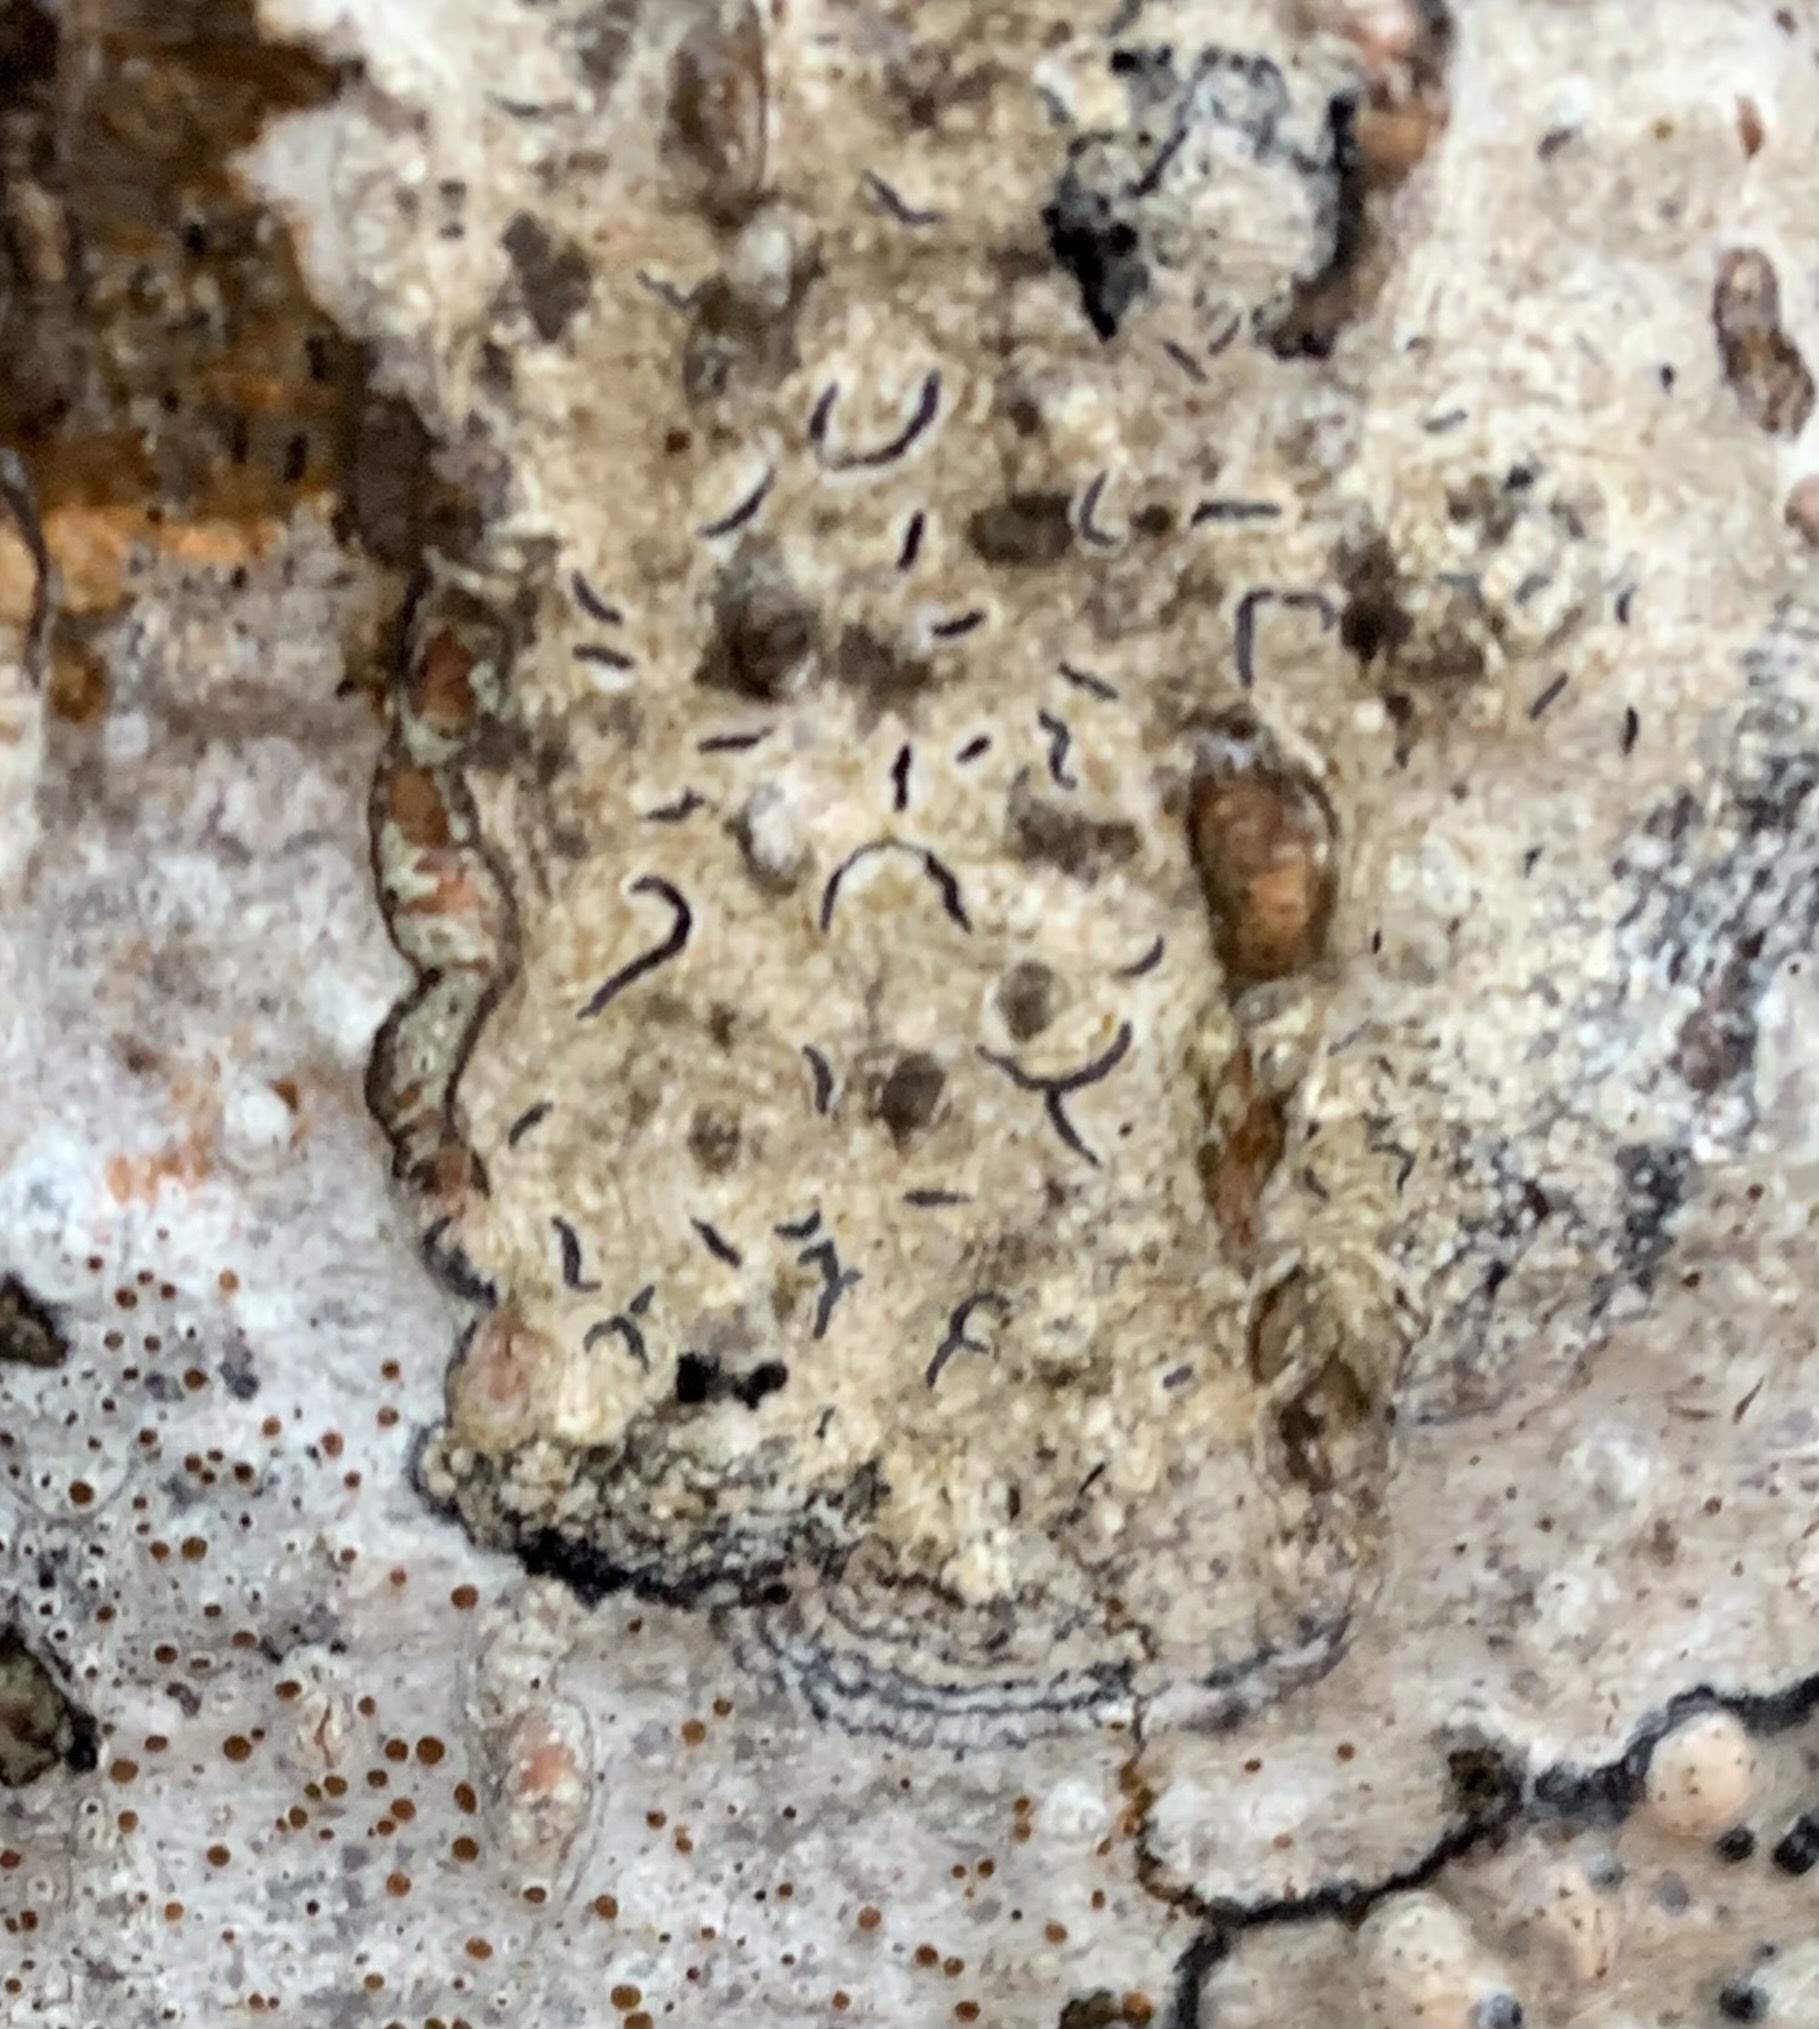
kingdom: Fungi
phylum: Ascomycota
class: Lecanoromycetes
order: Ostropales
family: Graphidaceae
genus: Graphis
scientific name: Graphis scripta
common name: Script lichen
